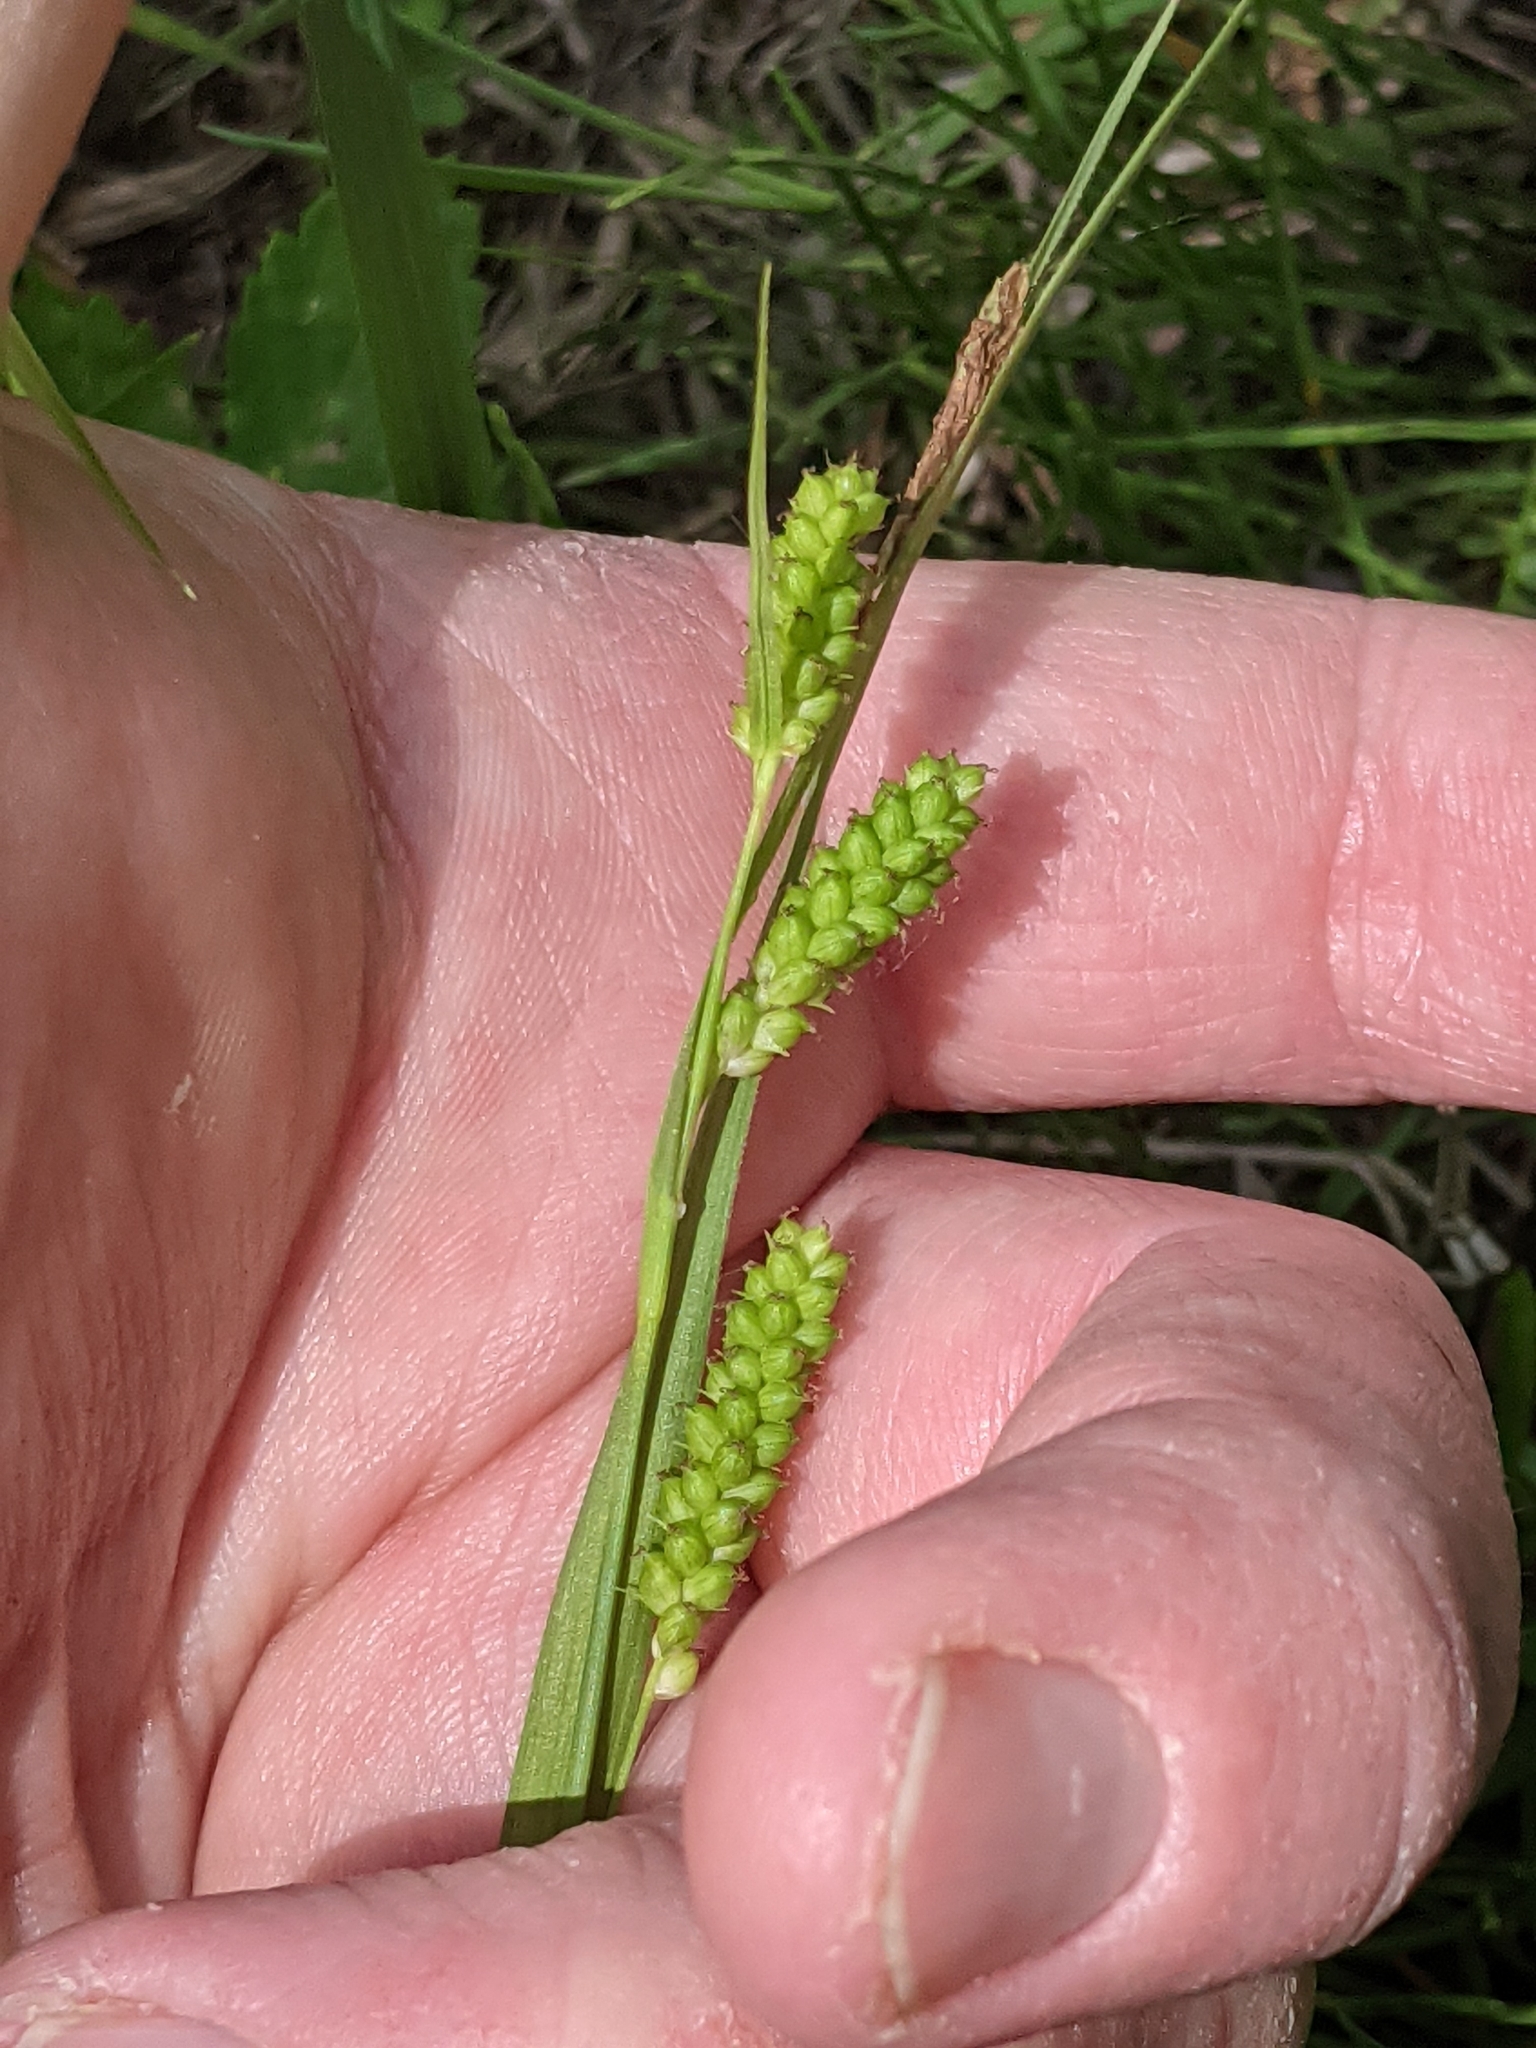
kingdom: Plantae
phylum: Tracheophyta
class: Liliopsida
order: Poales
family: Cyperaceae
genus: Carex
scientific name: Carex granularis
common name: Granular sedge
